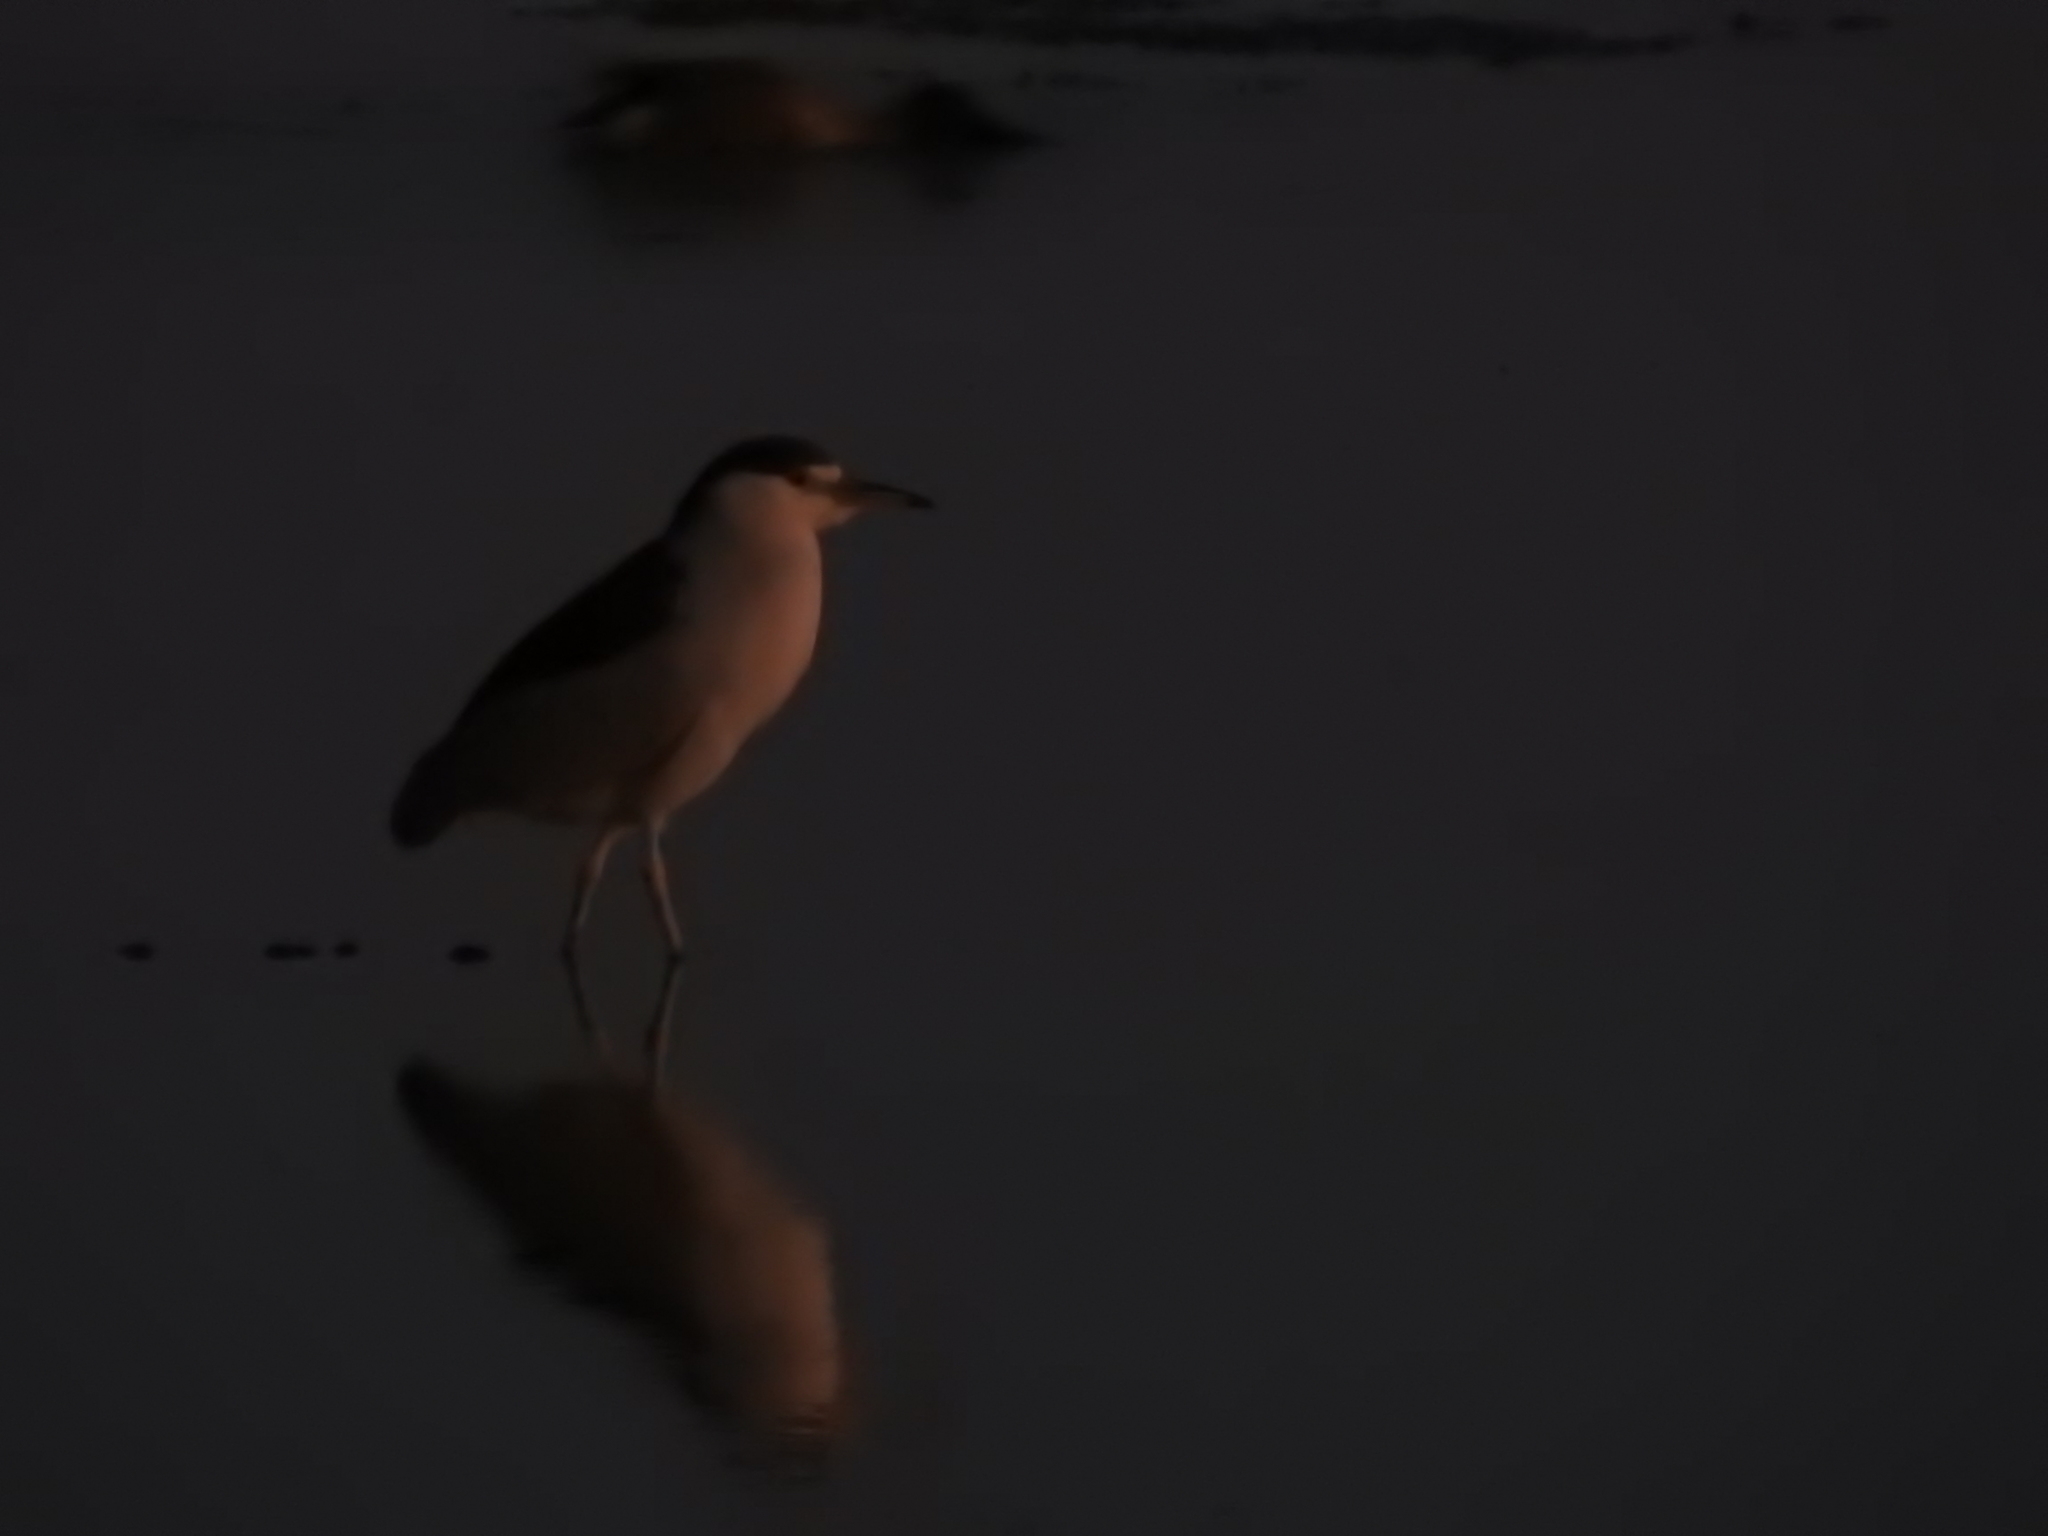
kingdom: Animalia
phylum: Chordata
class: Aves
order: Pelecaniformes
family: Ardeidae
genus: Nycticorax
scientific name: Nycticorax nycticorax
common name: Black-crowned night heron
